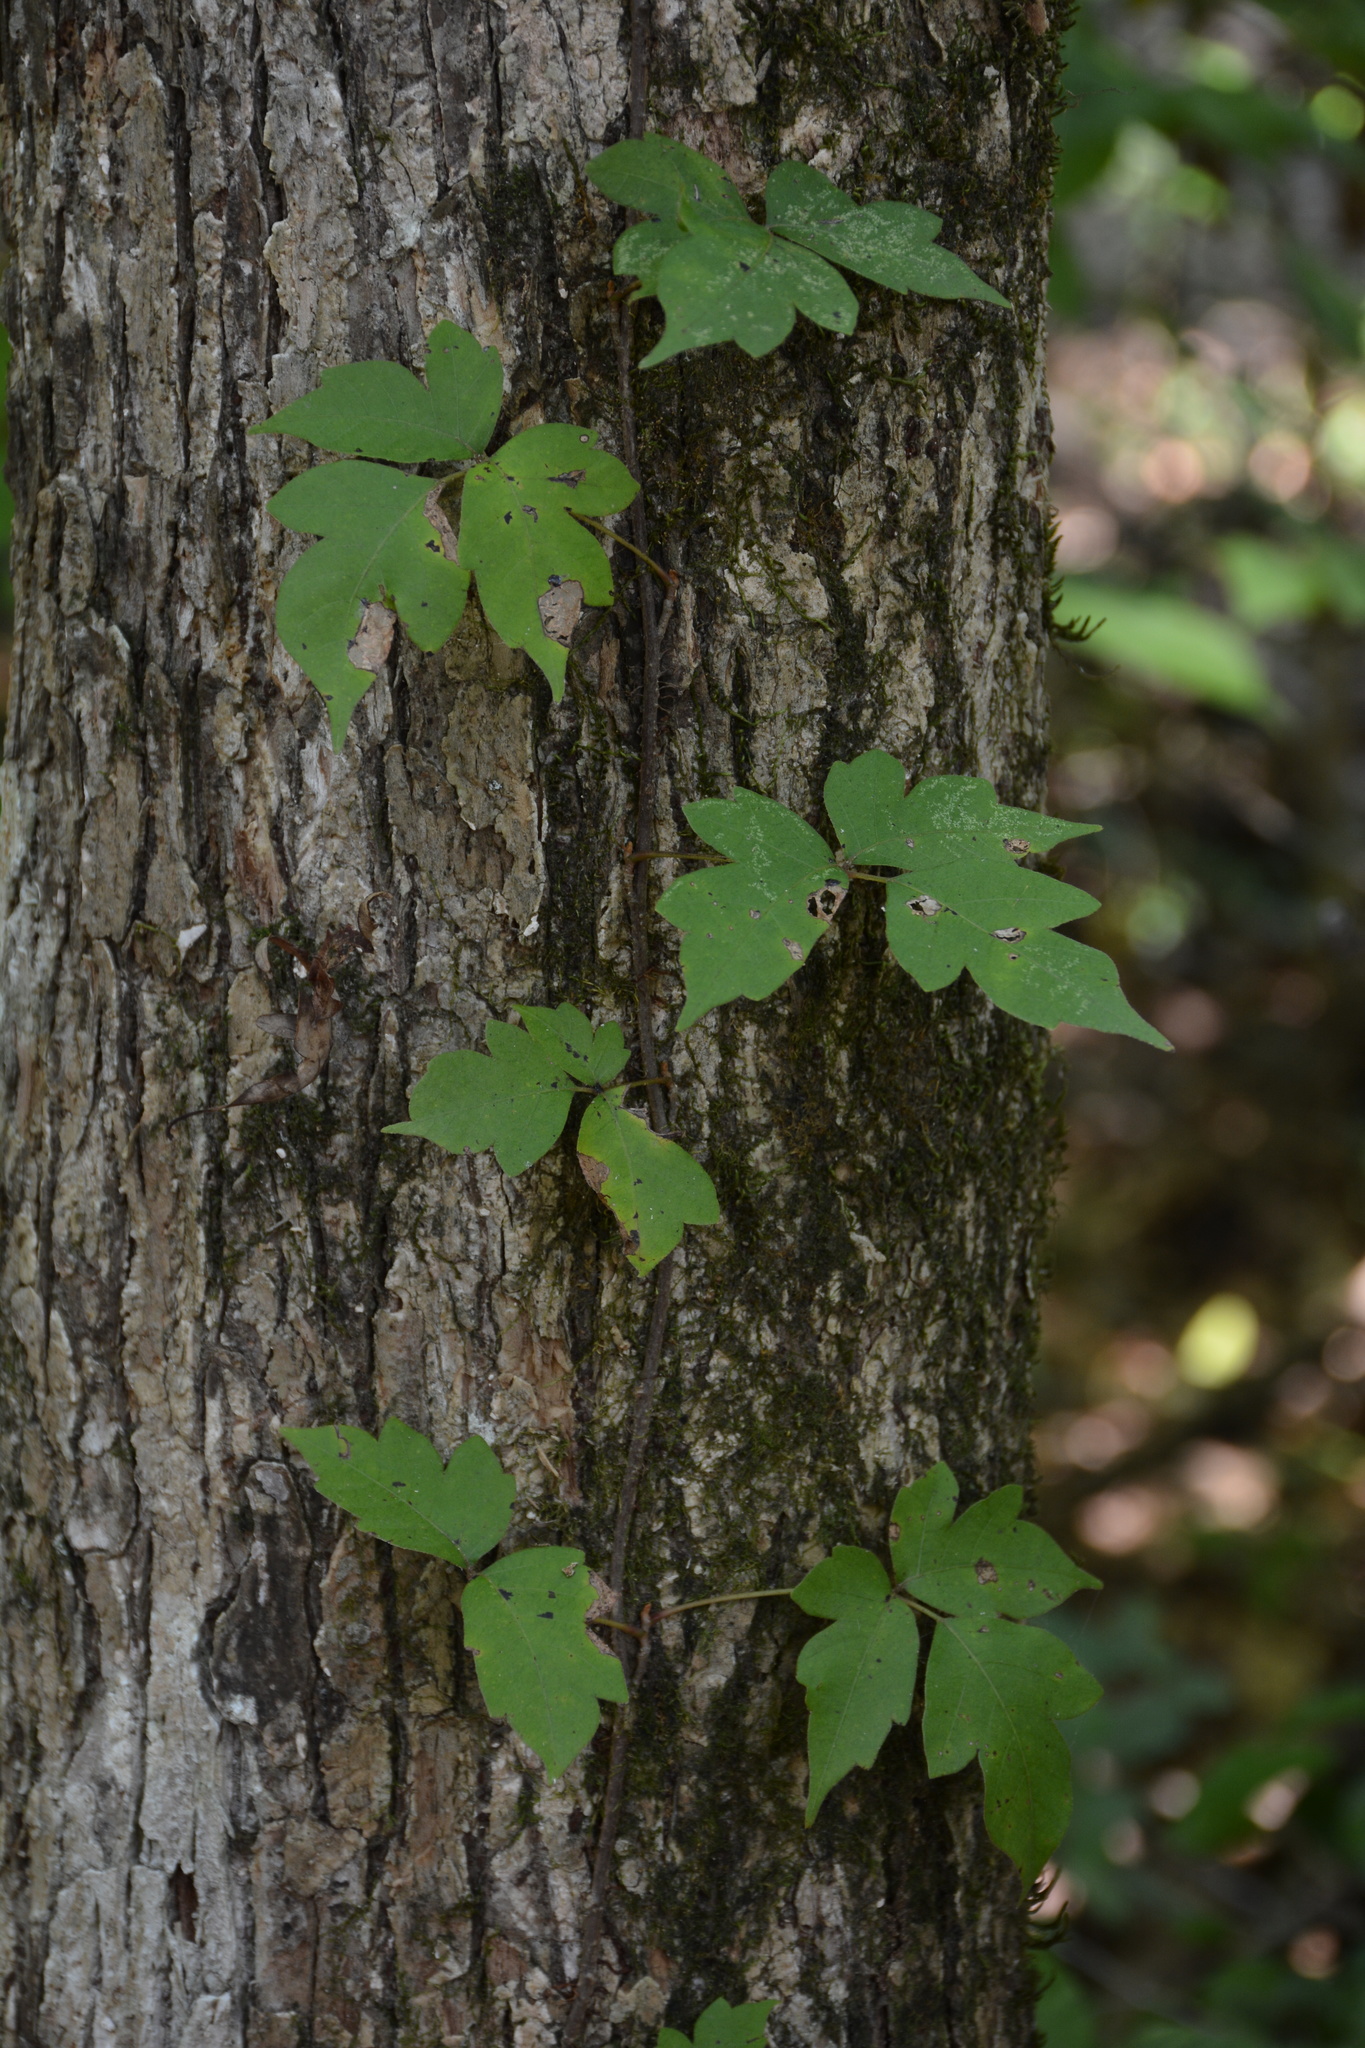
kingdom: Plantae
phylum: Tracheophyta
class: Magnoliopsida
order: Sapindales
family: Anacardiaceae
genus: Toxicodendron
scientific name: Toxicodendron radicans
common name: Poison ivy
